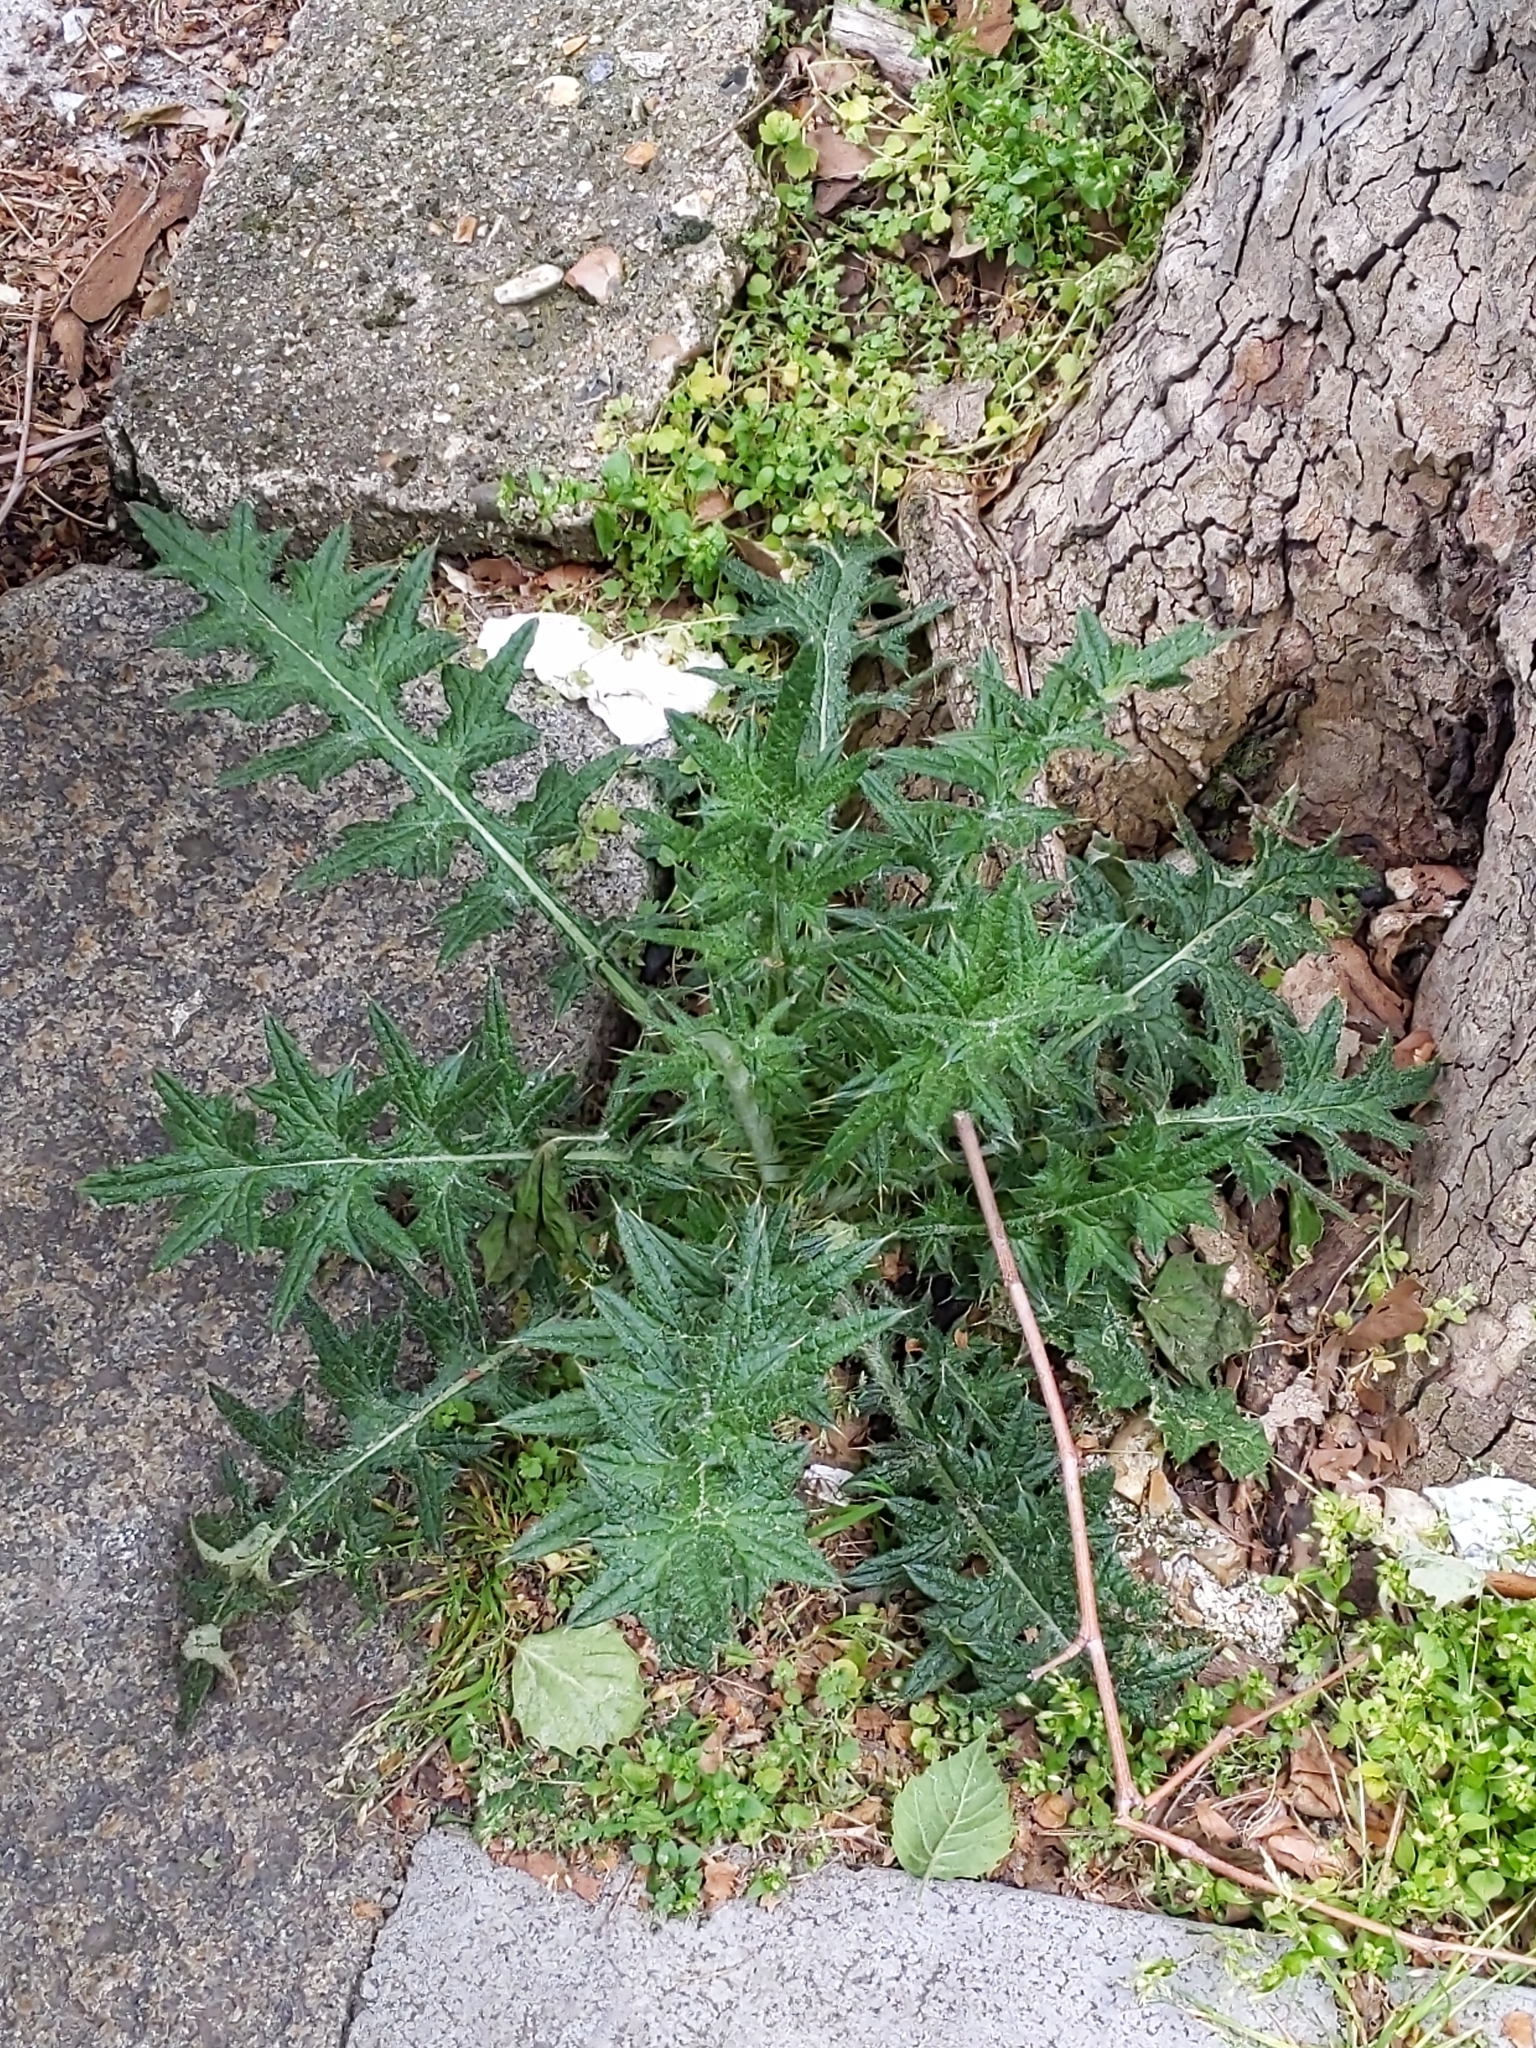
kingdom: Plantae
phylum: Tracheophyta
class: Magnoliopsida
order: Asterales
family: Asteraceae
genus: Cirsium
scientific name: Cirsium vulgare
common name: Bull thistle
